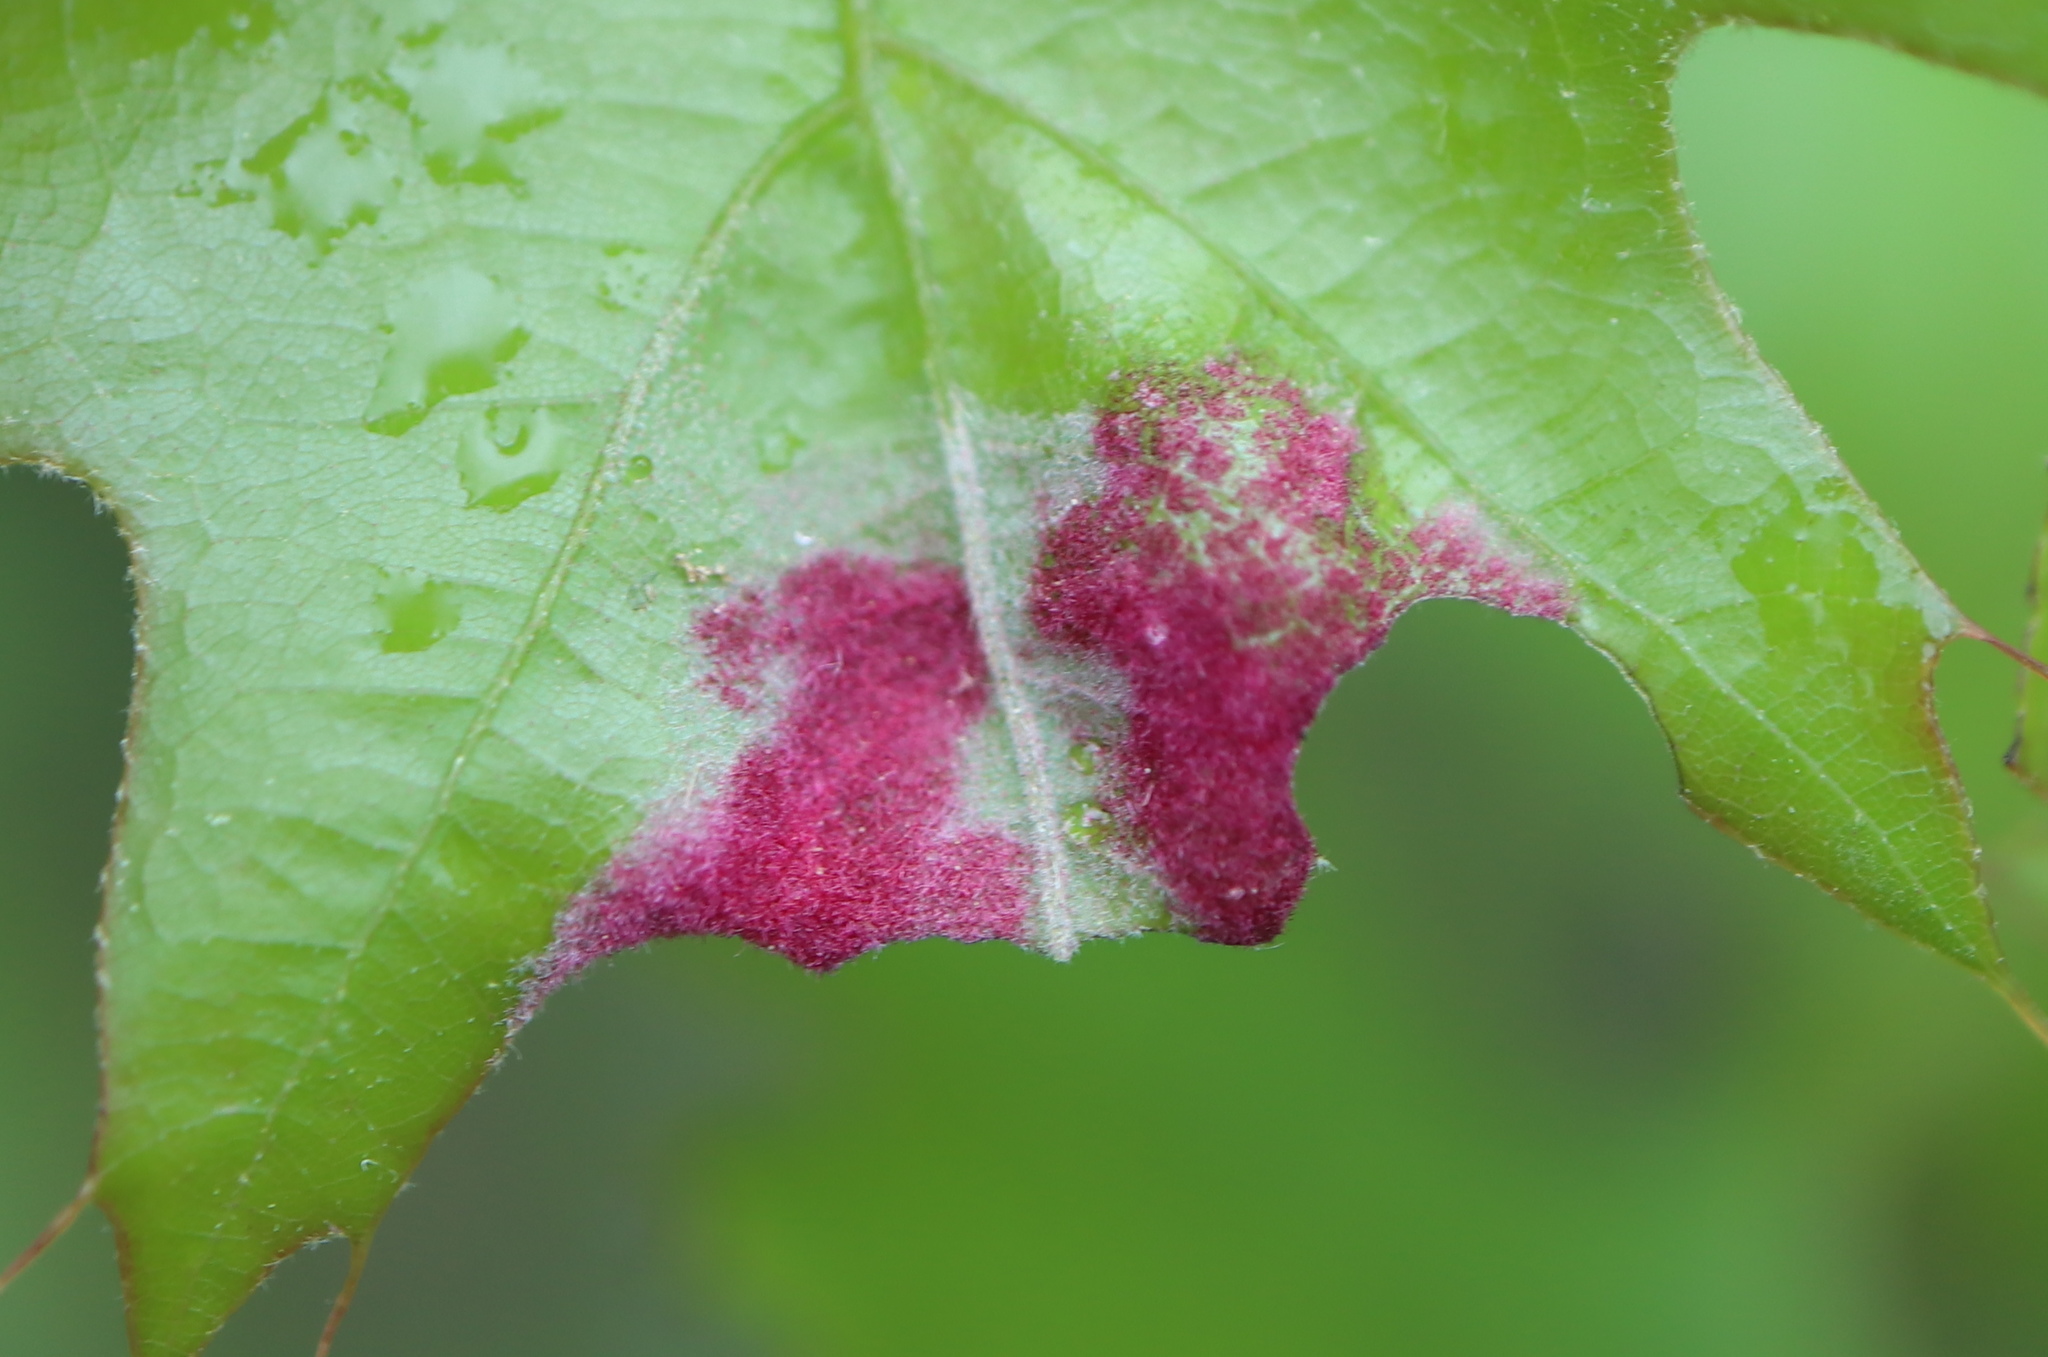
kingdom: Animalia
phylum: Arthropoda
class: Arachnida
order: Trombidiformes
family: Eriophyidae
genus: Aceria
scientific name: Aceria
